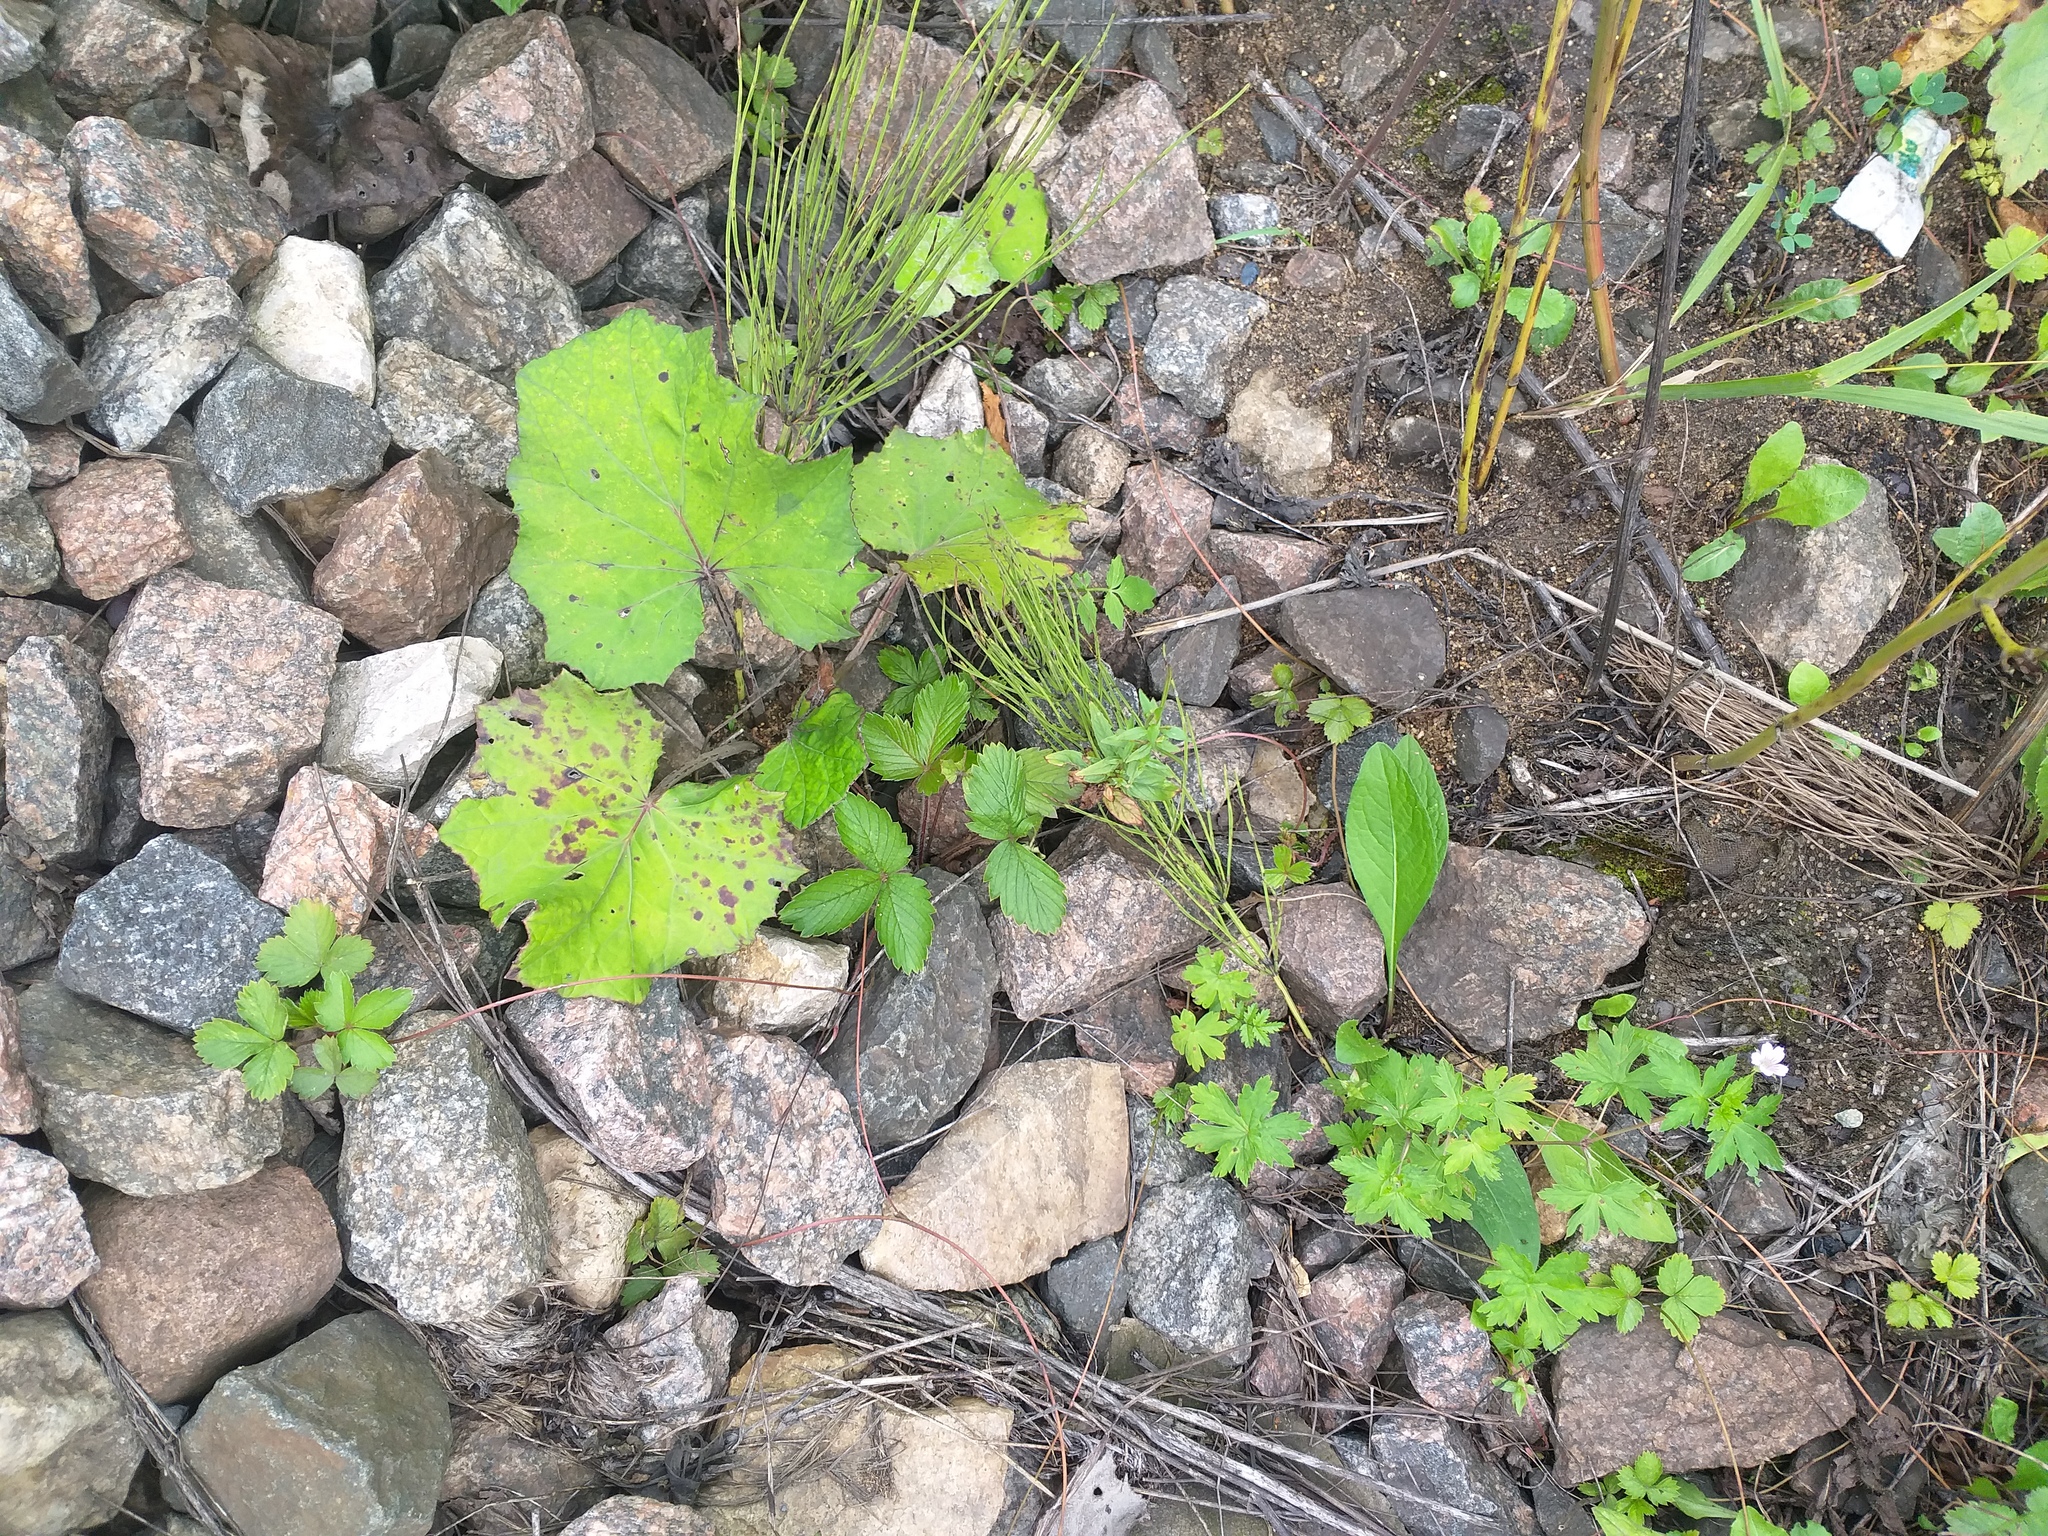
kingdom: Plantae
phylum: Tracheophyta
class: Magnoliopsida
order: Rosales
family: Rosaceae
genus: Fragaria
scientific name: Fragaria vesca
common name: Wild strawberry
